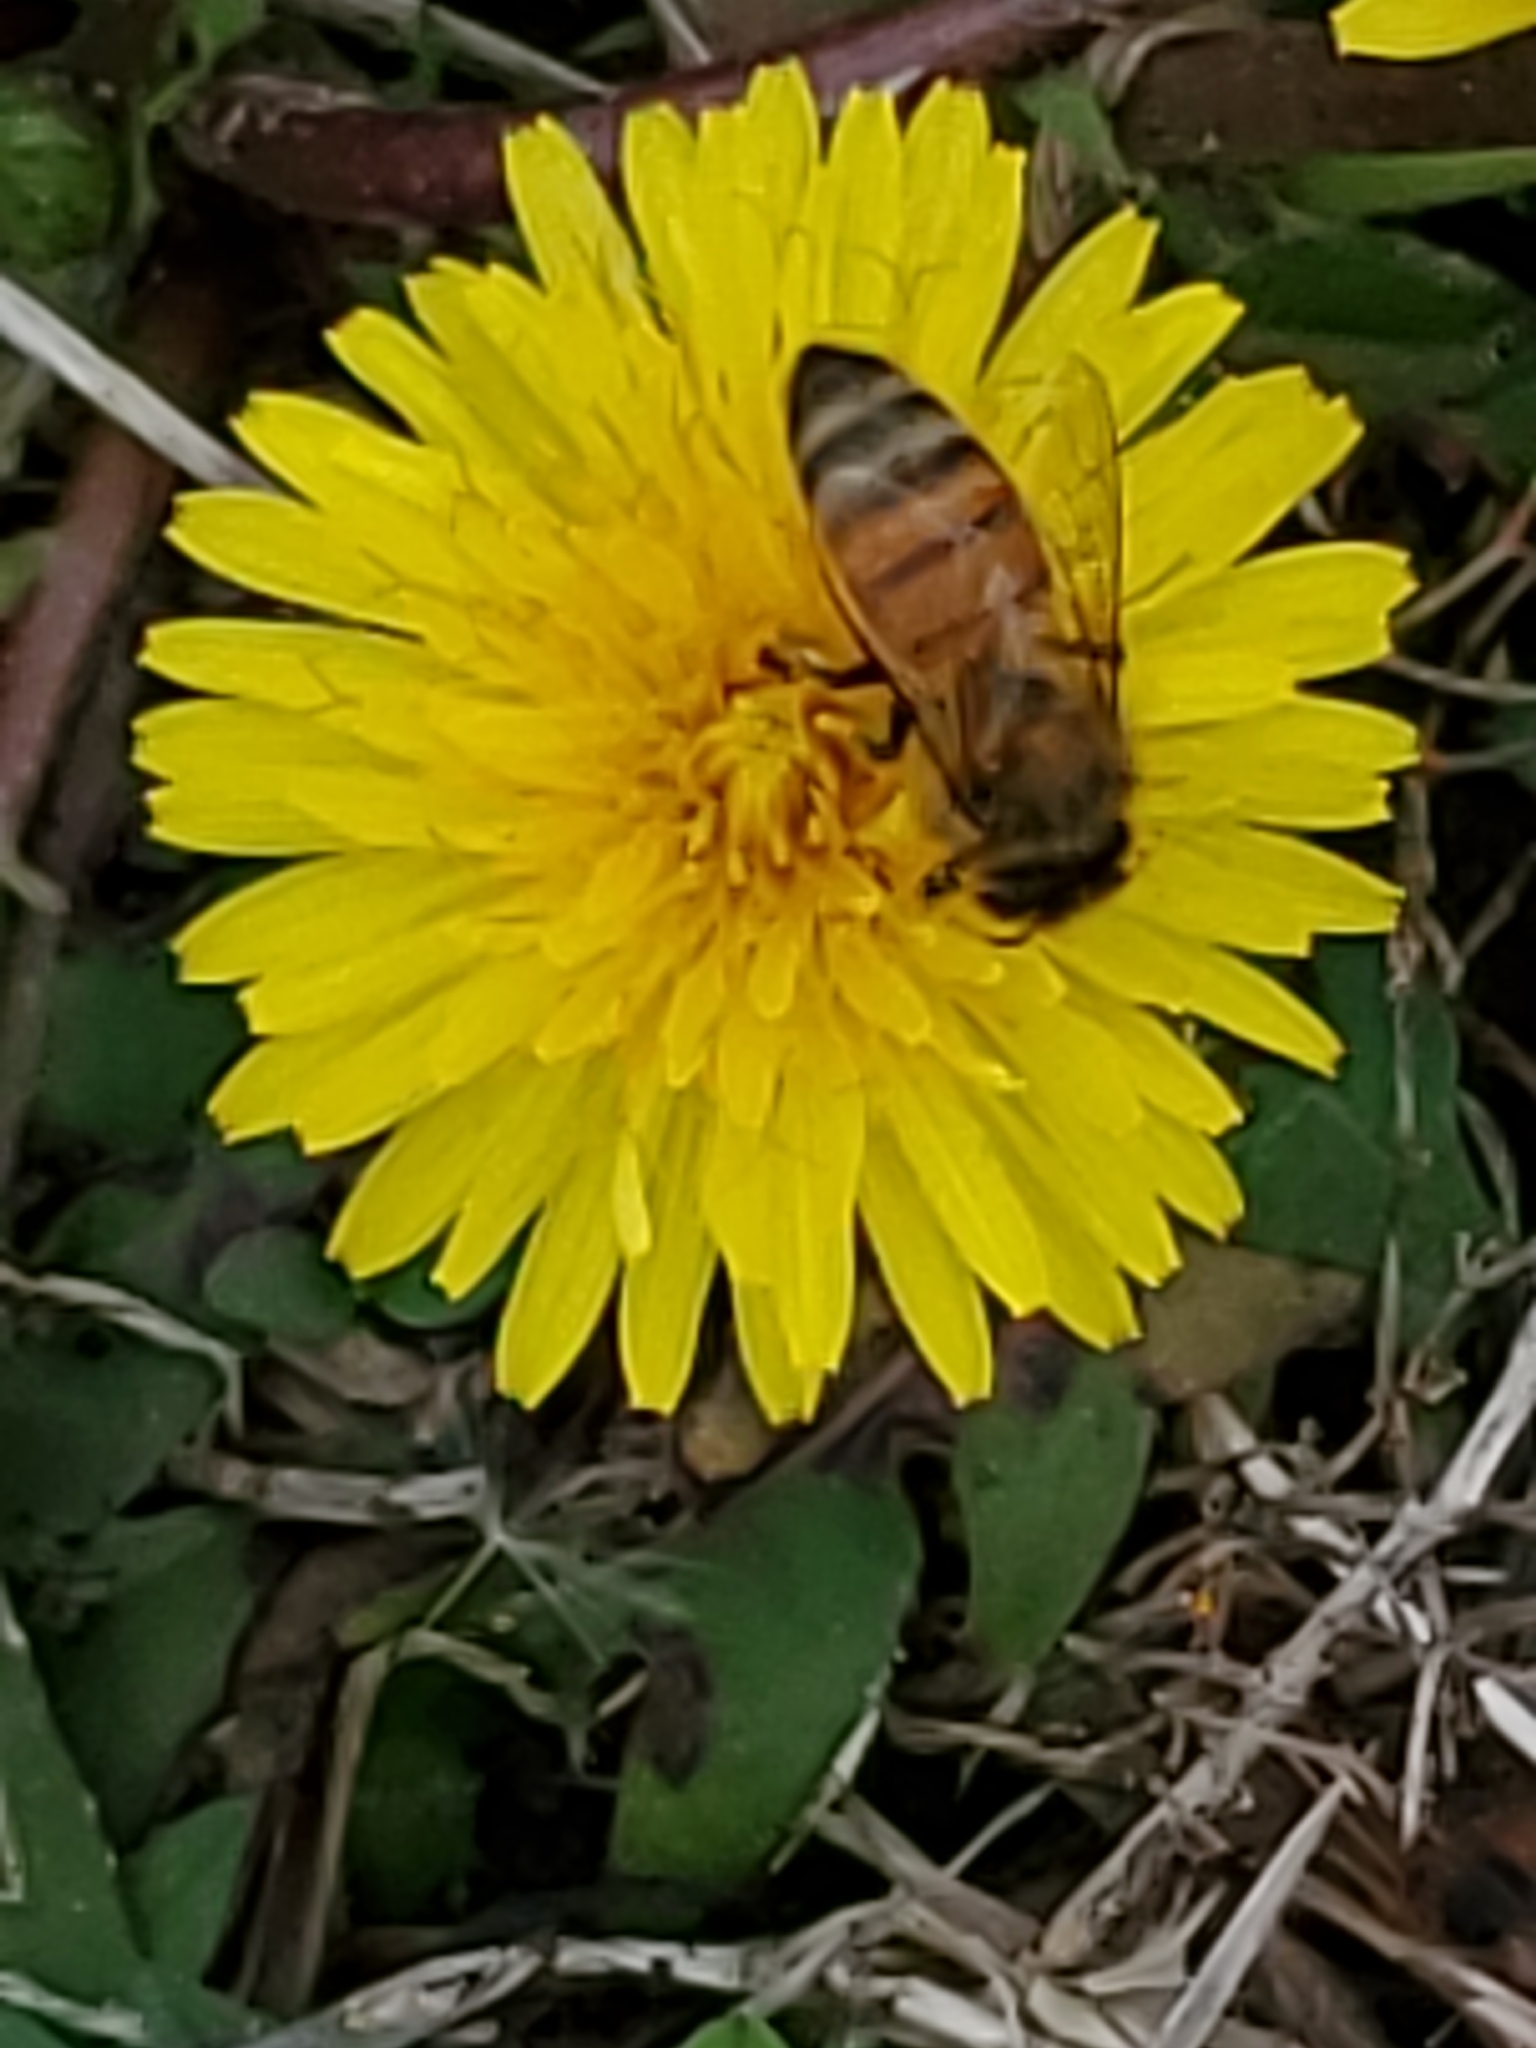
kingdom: Animalia
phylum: Arthropoda
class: Insecta
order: Hymenoptera
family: Apidae
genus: Apis
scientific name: Apis mellifera
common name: Honey bee
